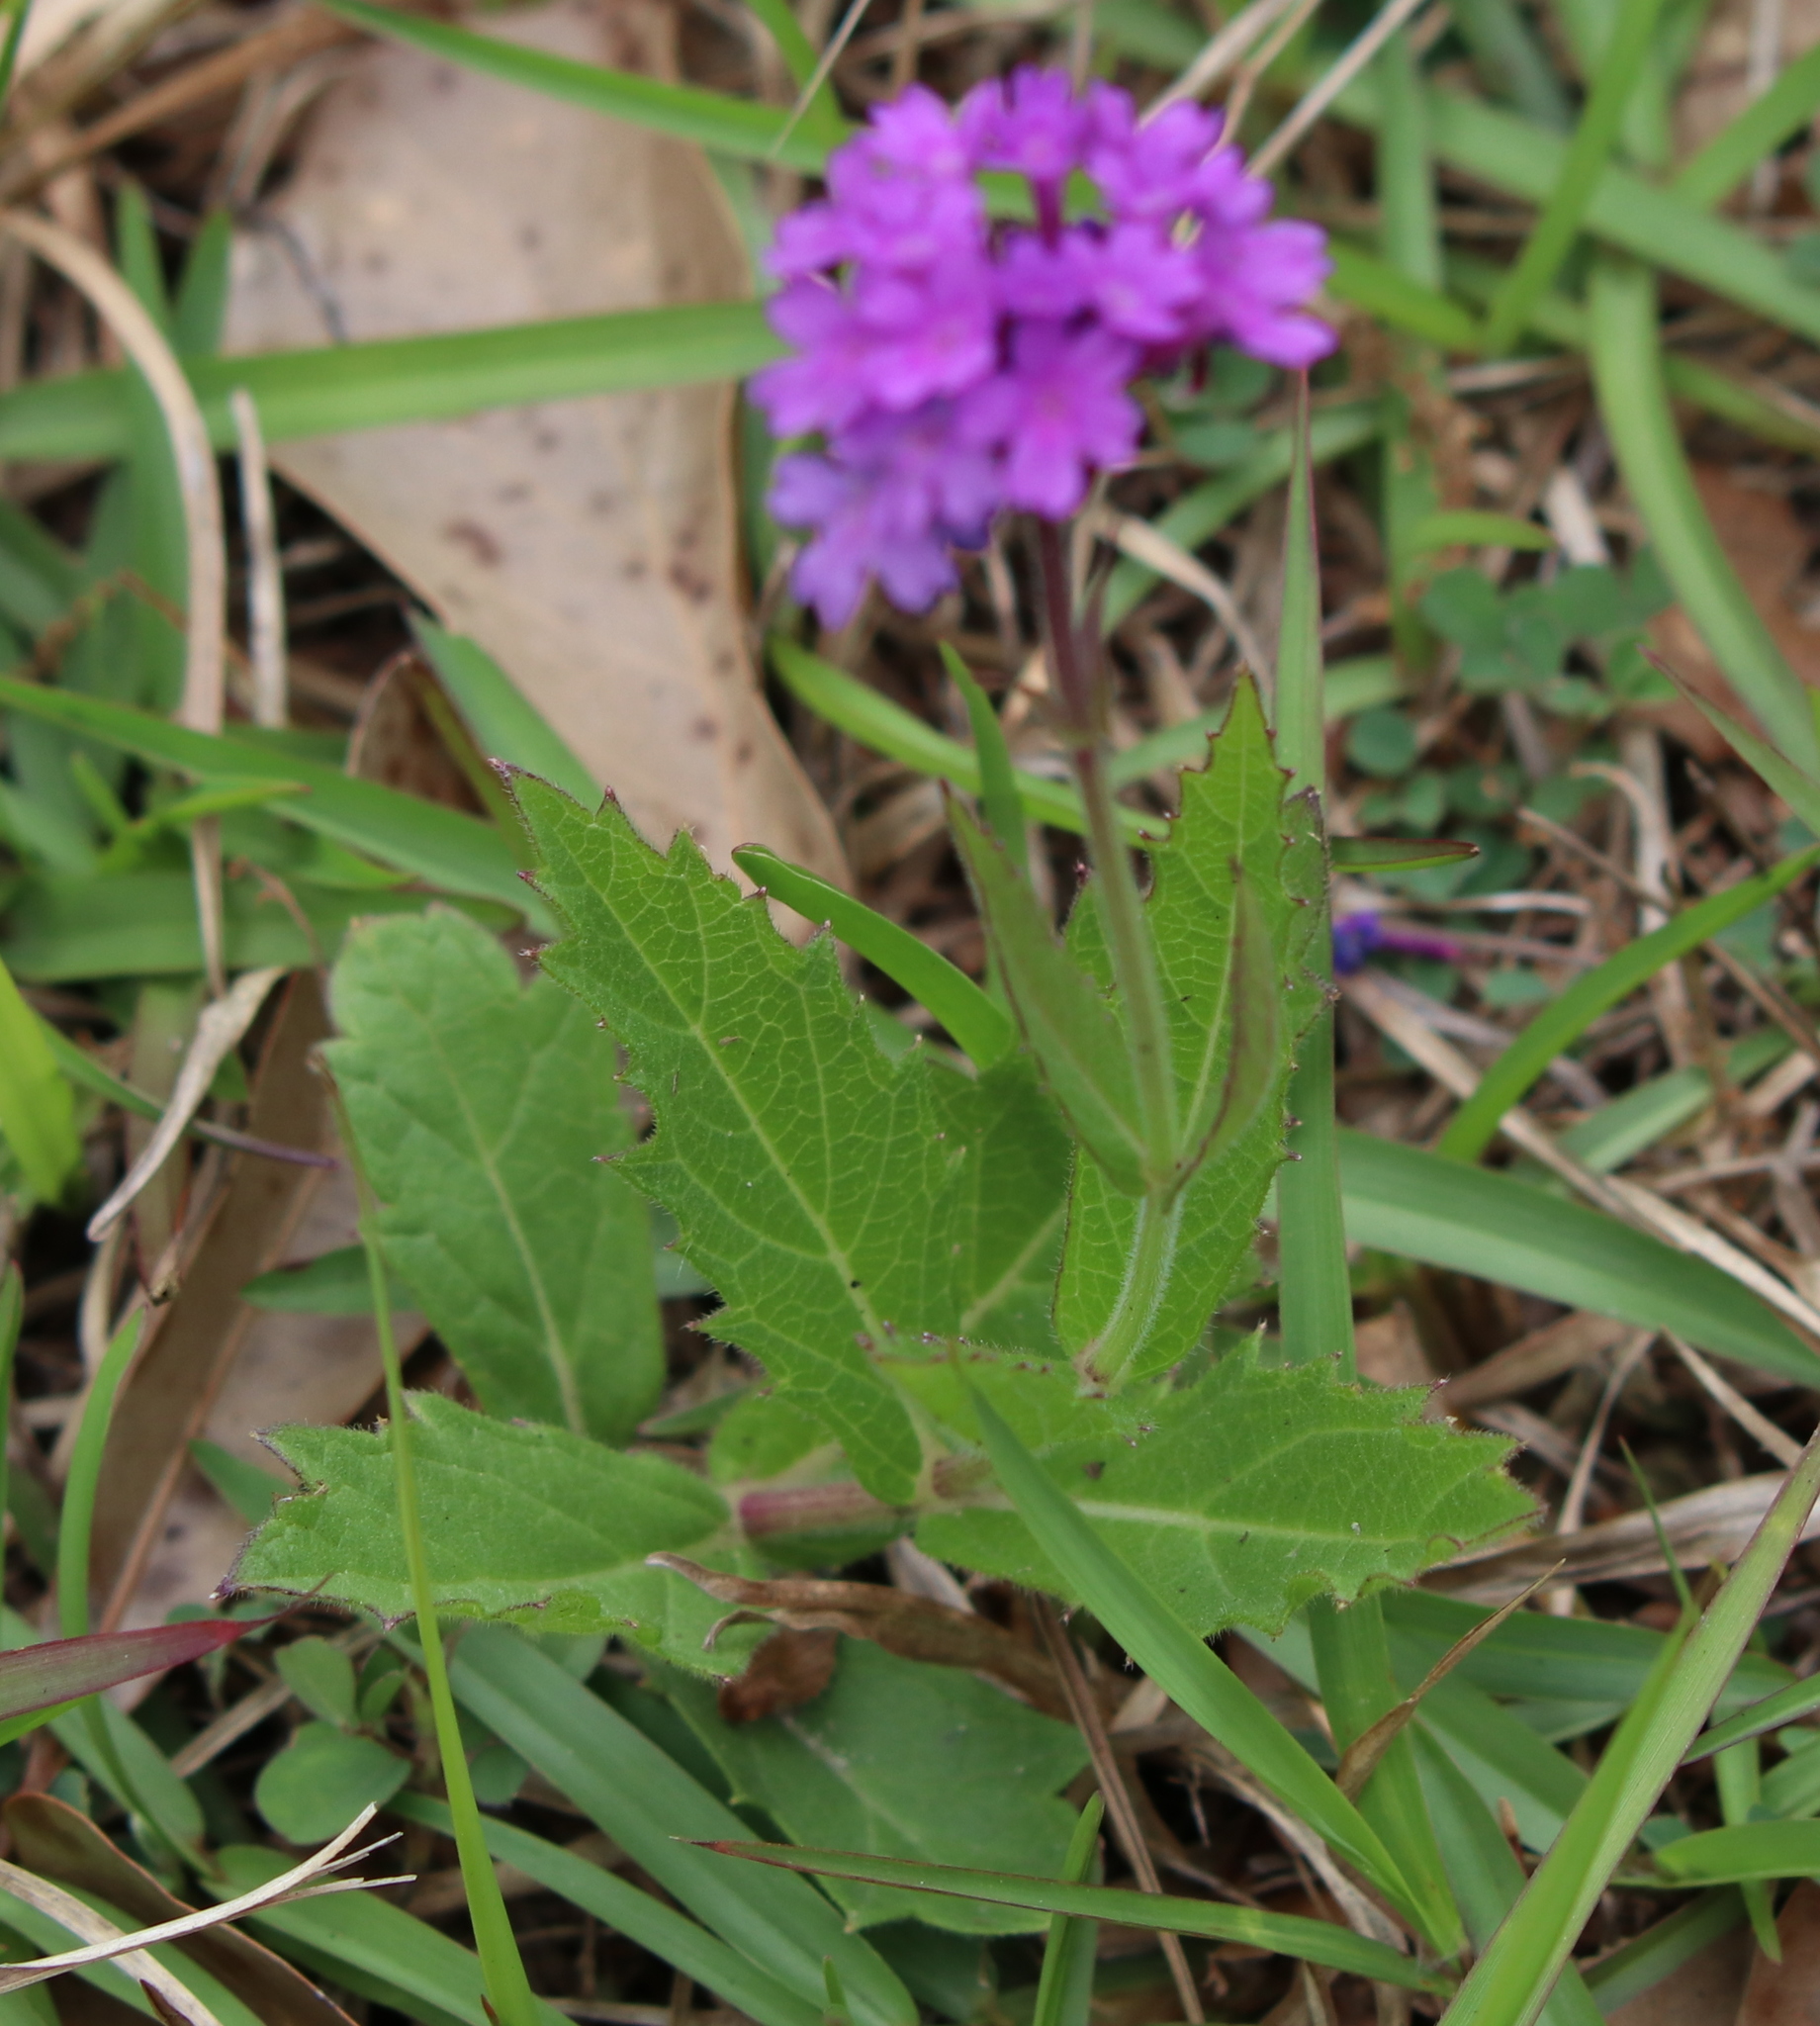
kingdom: Plantae
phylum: Tracheophyta
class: Magnoliopsida
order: Lamiales
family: Verbenaceae
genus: Verbena
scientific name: Verbena rigida
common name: Slender vervain
